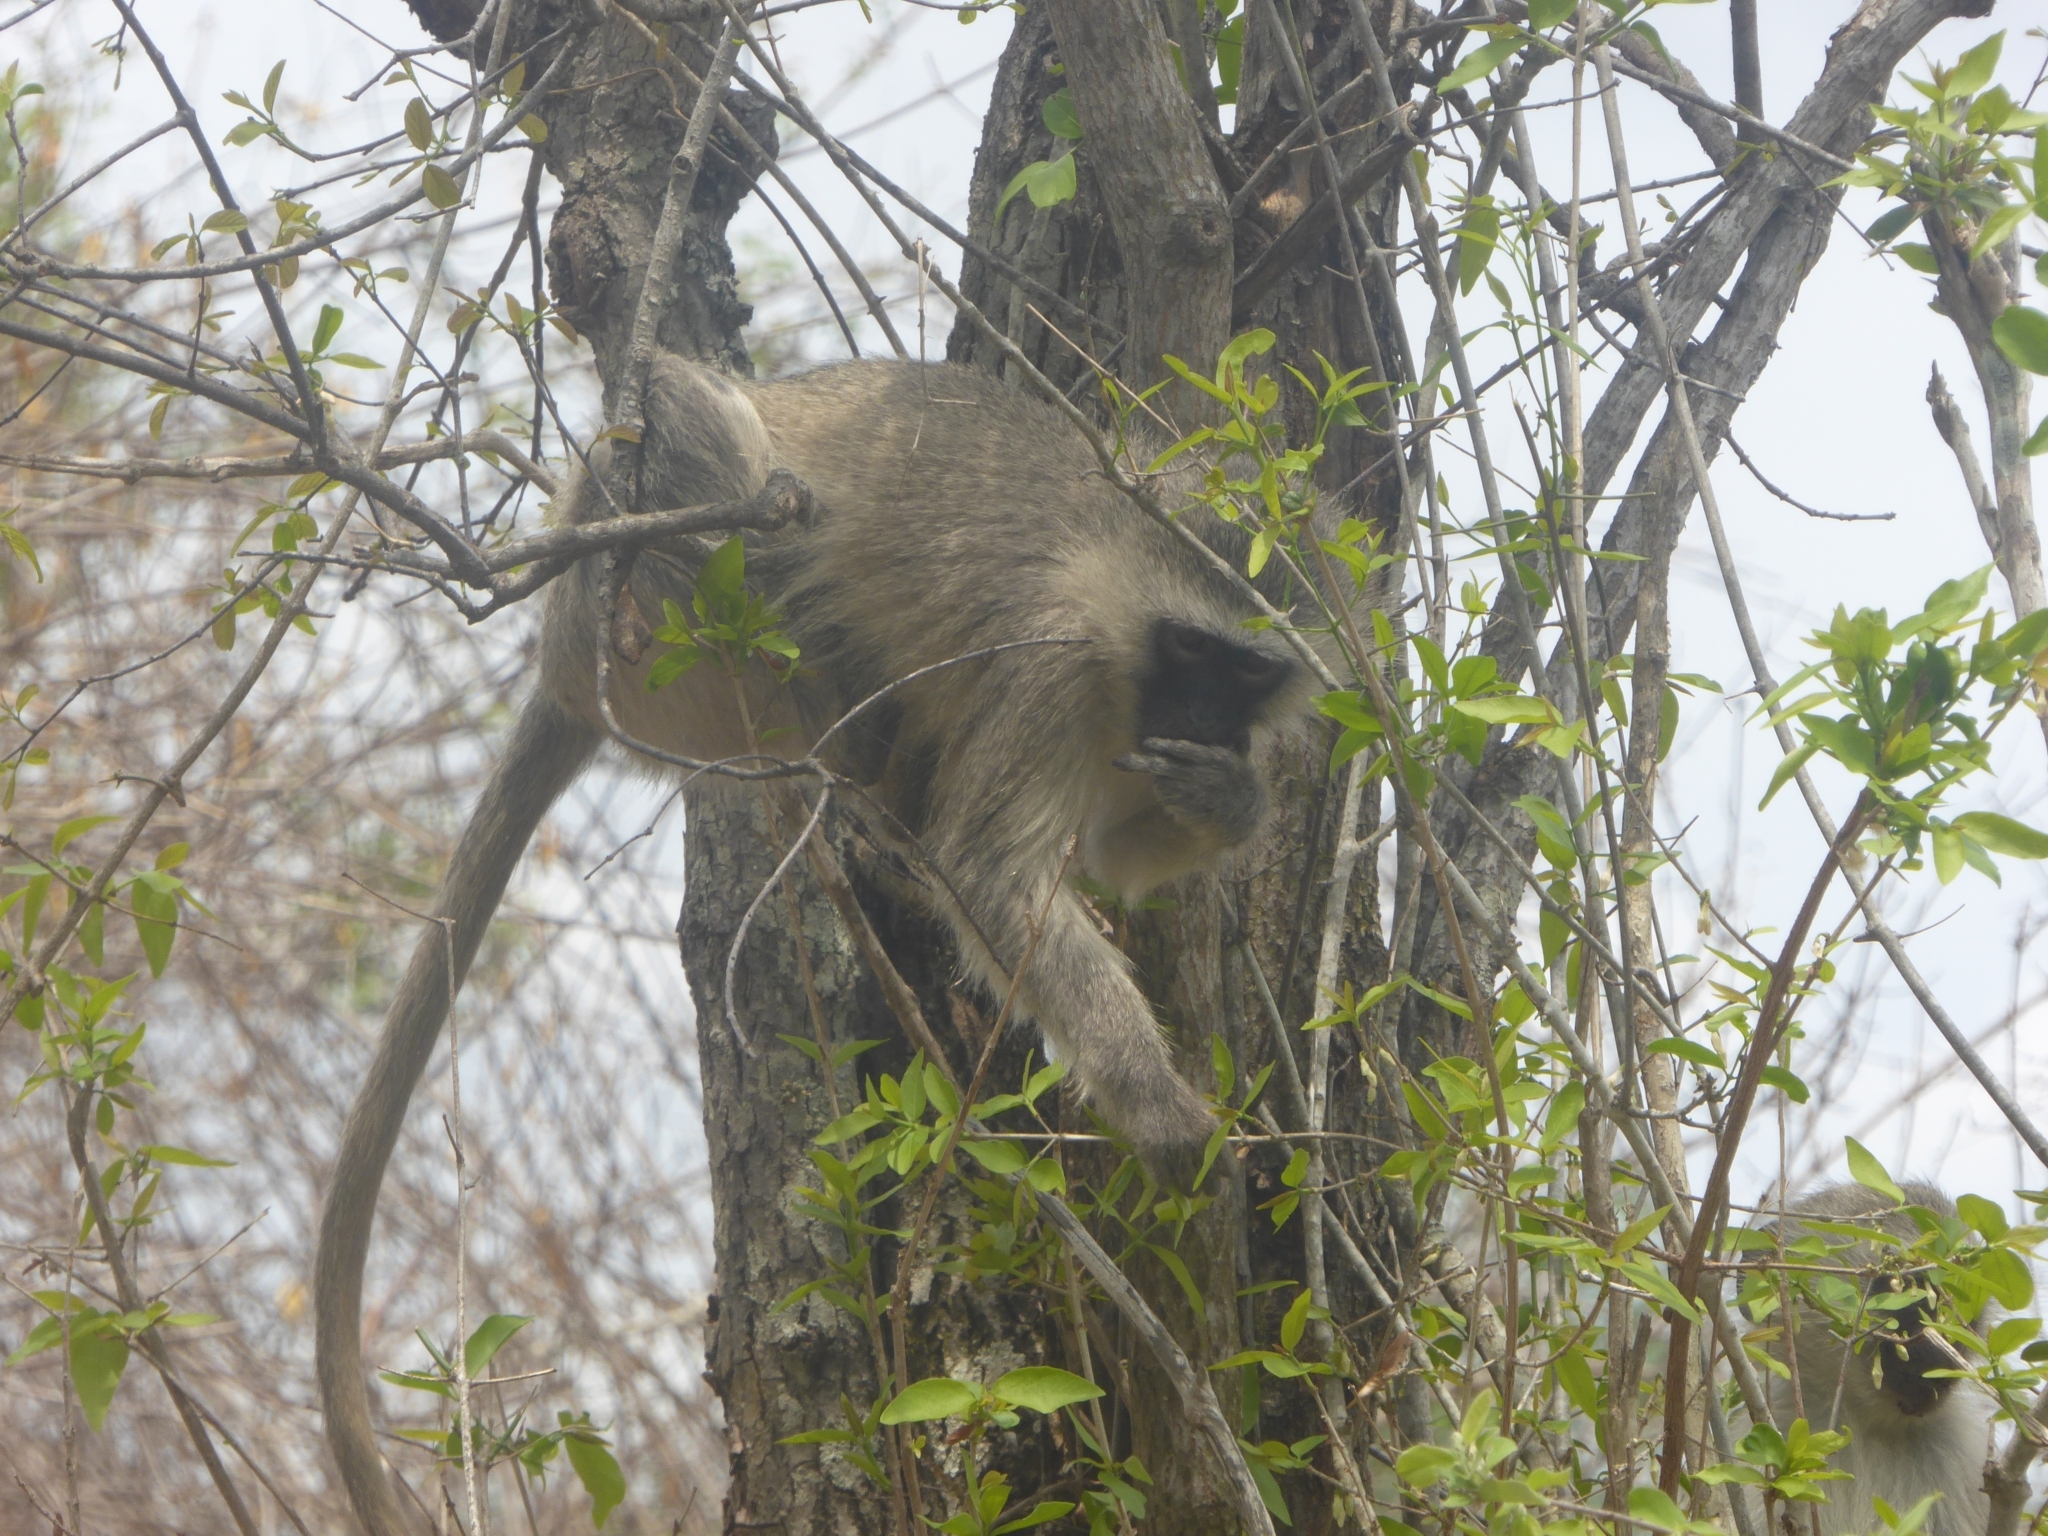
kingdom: Animalia
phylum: Chordata
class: Mammalia
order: Primates
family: Cercopithecidae
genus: Chlorocebus
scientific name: Chlorocebus pygerythrus
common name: Vervet monkey
